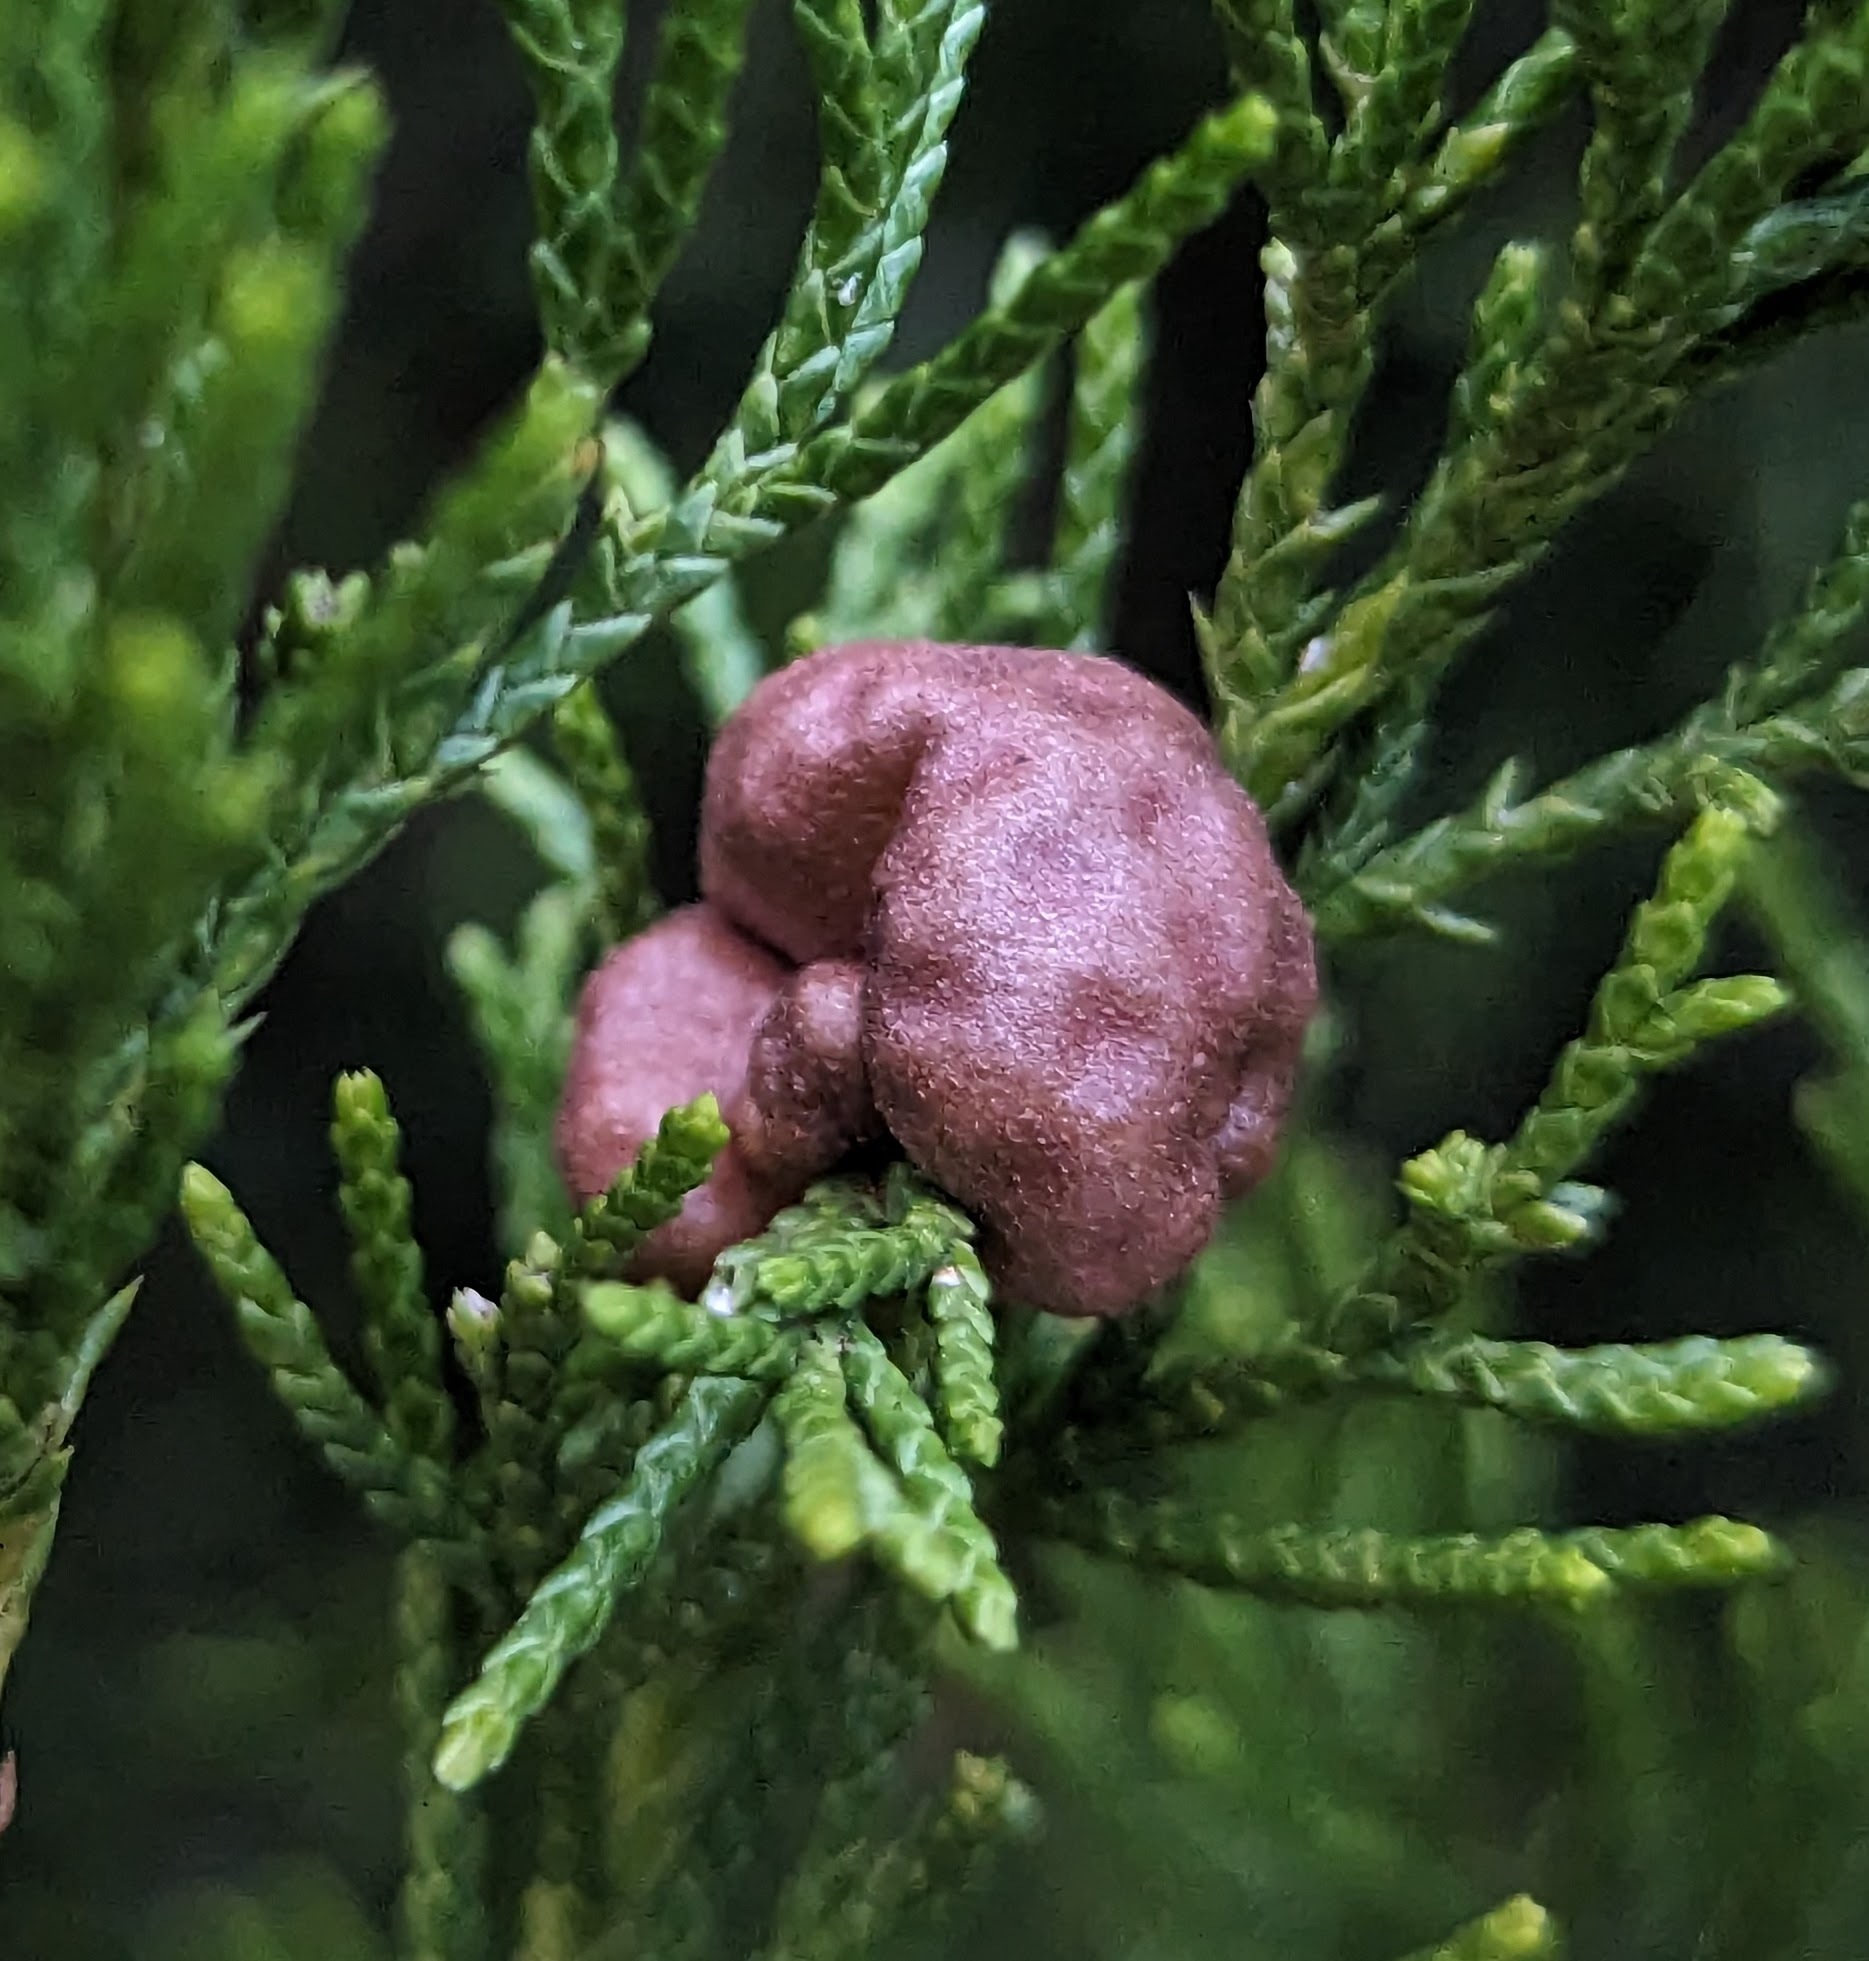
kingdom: Fungi
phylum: Basidiomycota
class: Pucciniomycetes
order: Pucciniales
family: Gymnosporangiaceae
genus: Gymnosporangium
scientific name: Gymnosporangium juniperi-virginianae
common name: Juniper-apple rust
